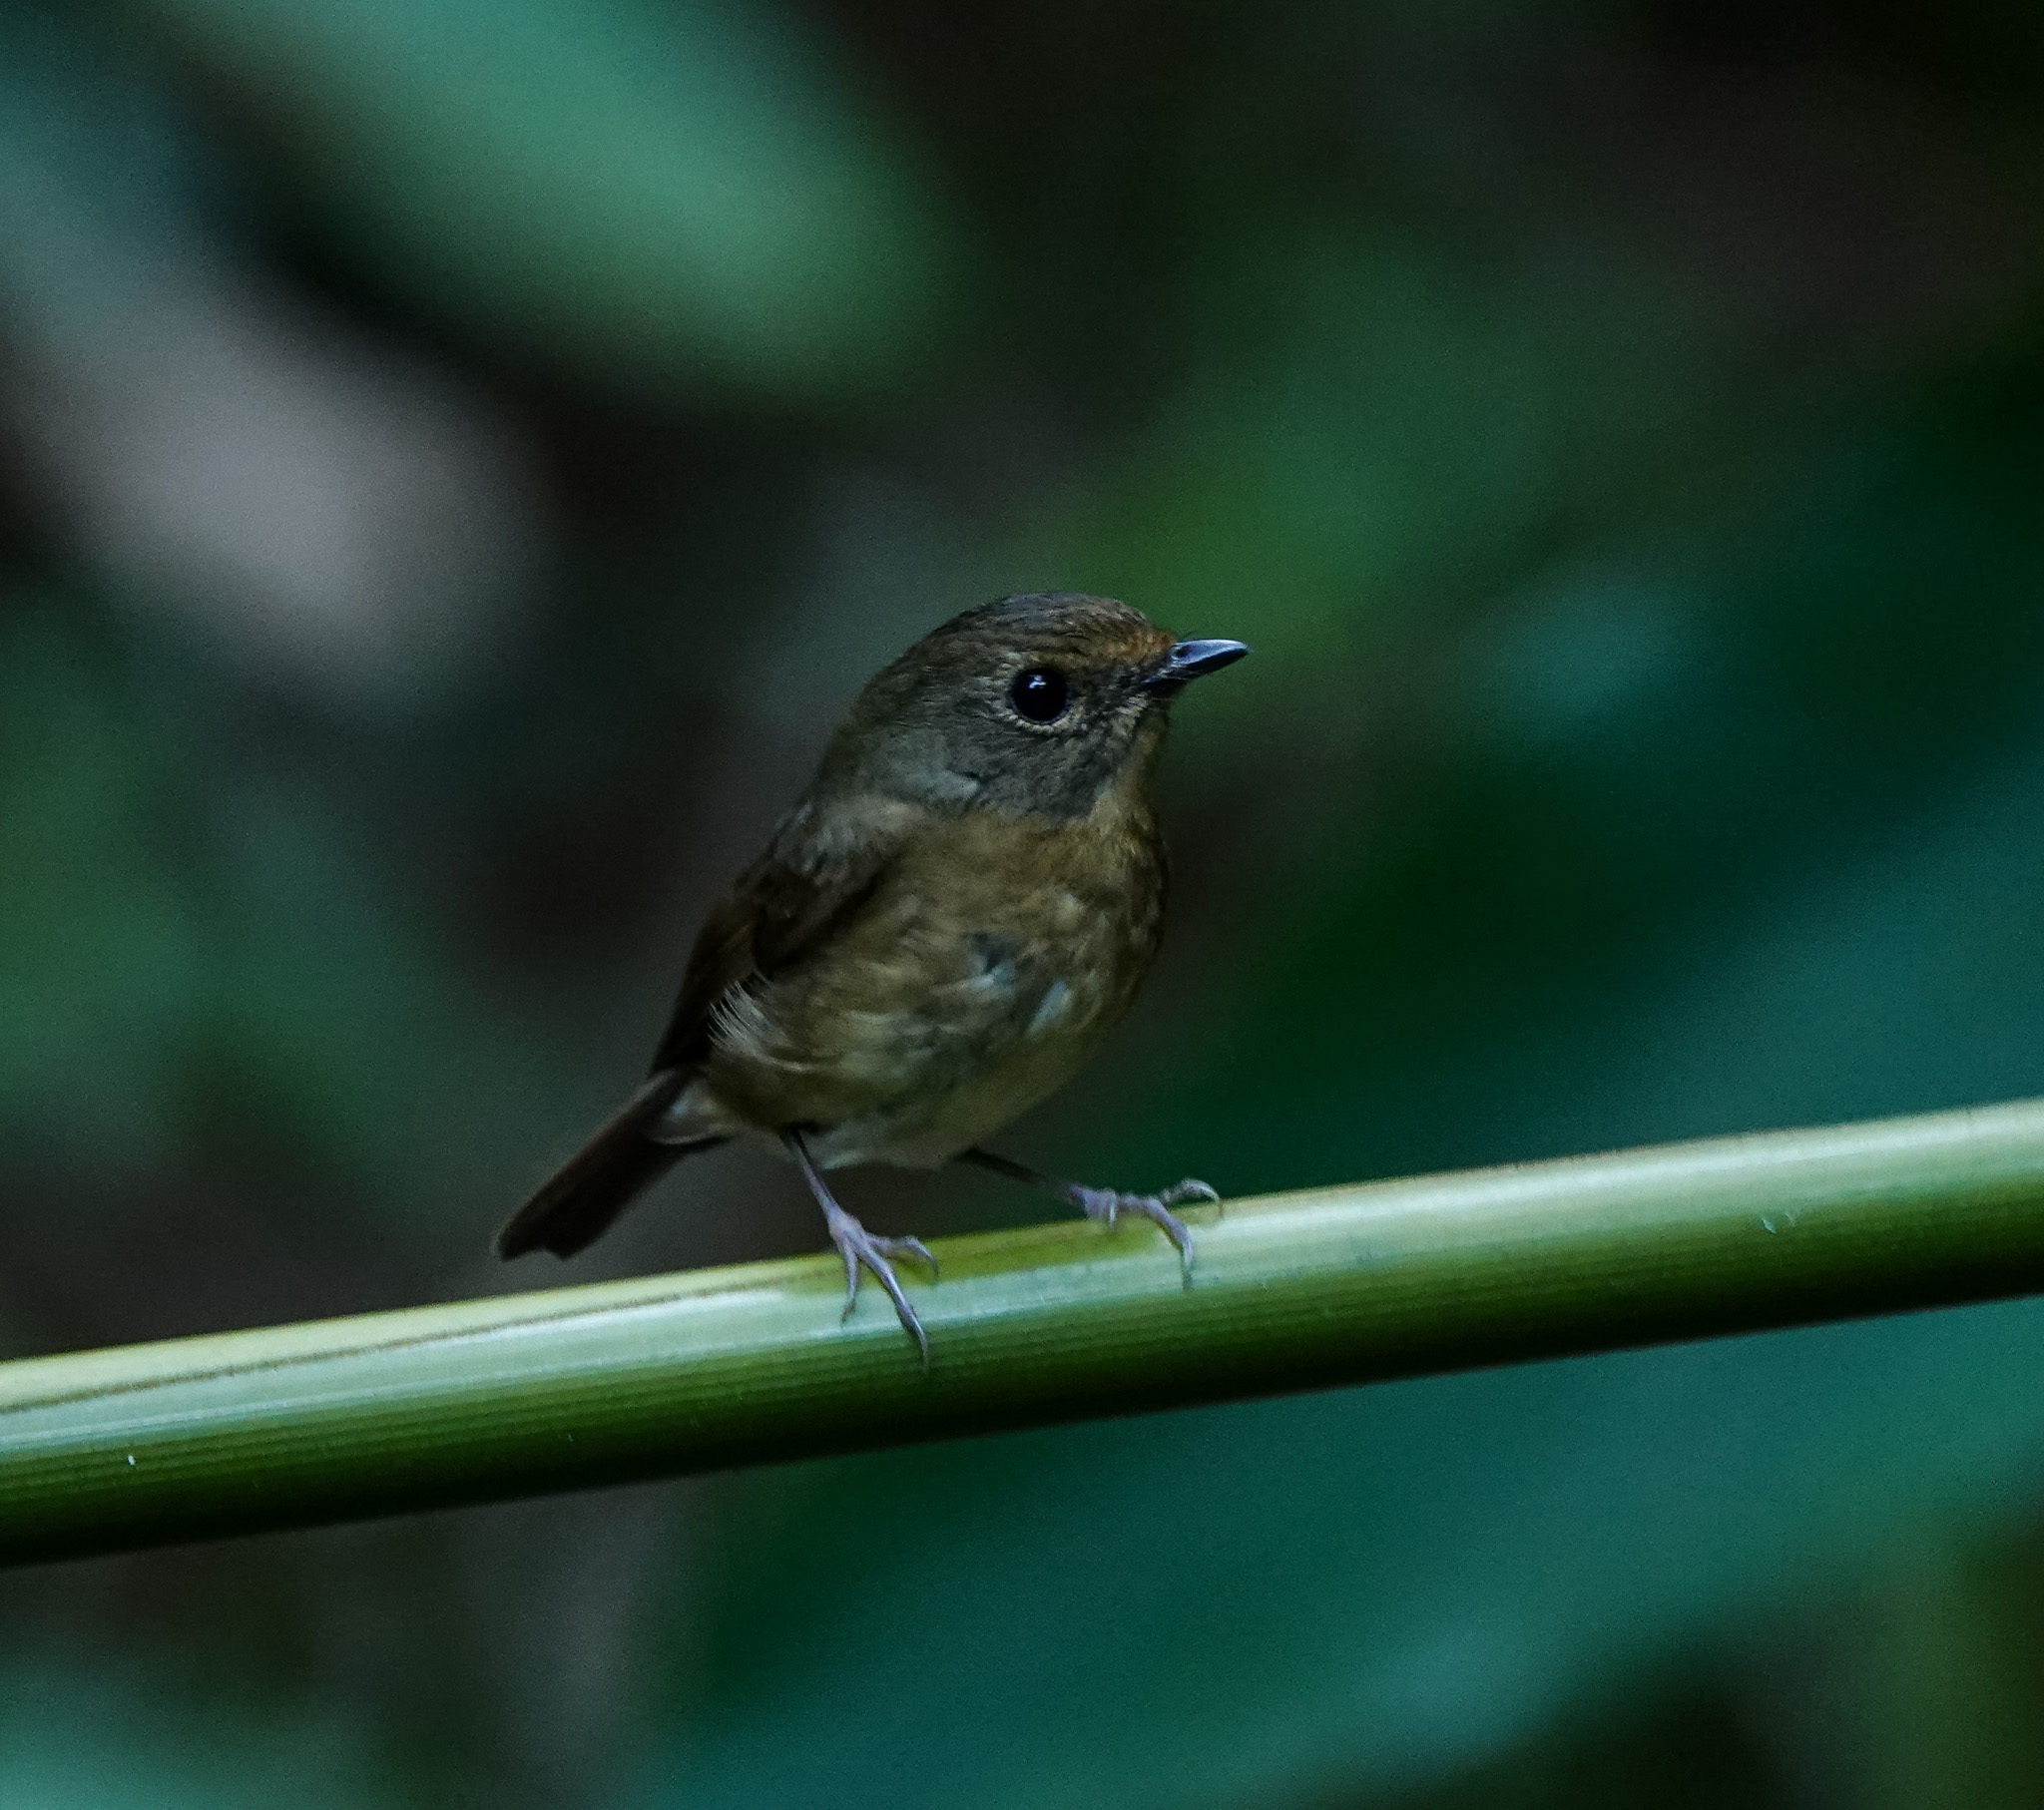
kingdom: Animalia
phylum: Chordata
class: Aves
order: Passeriformes
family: Muscicapidae
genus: Ficedula
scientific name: Ficedula hyperythra
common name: Snowy-browed flycatcher
